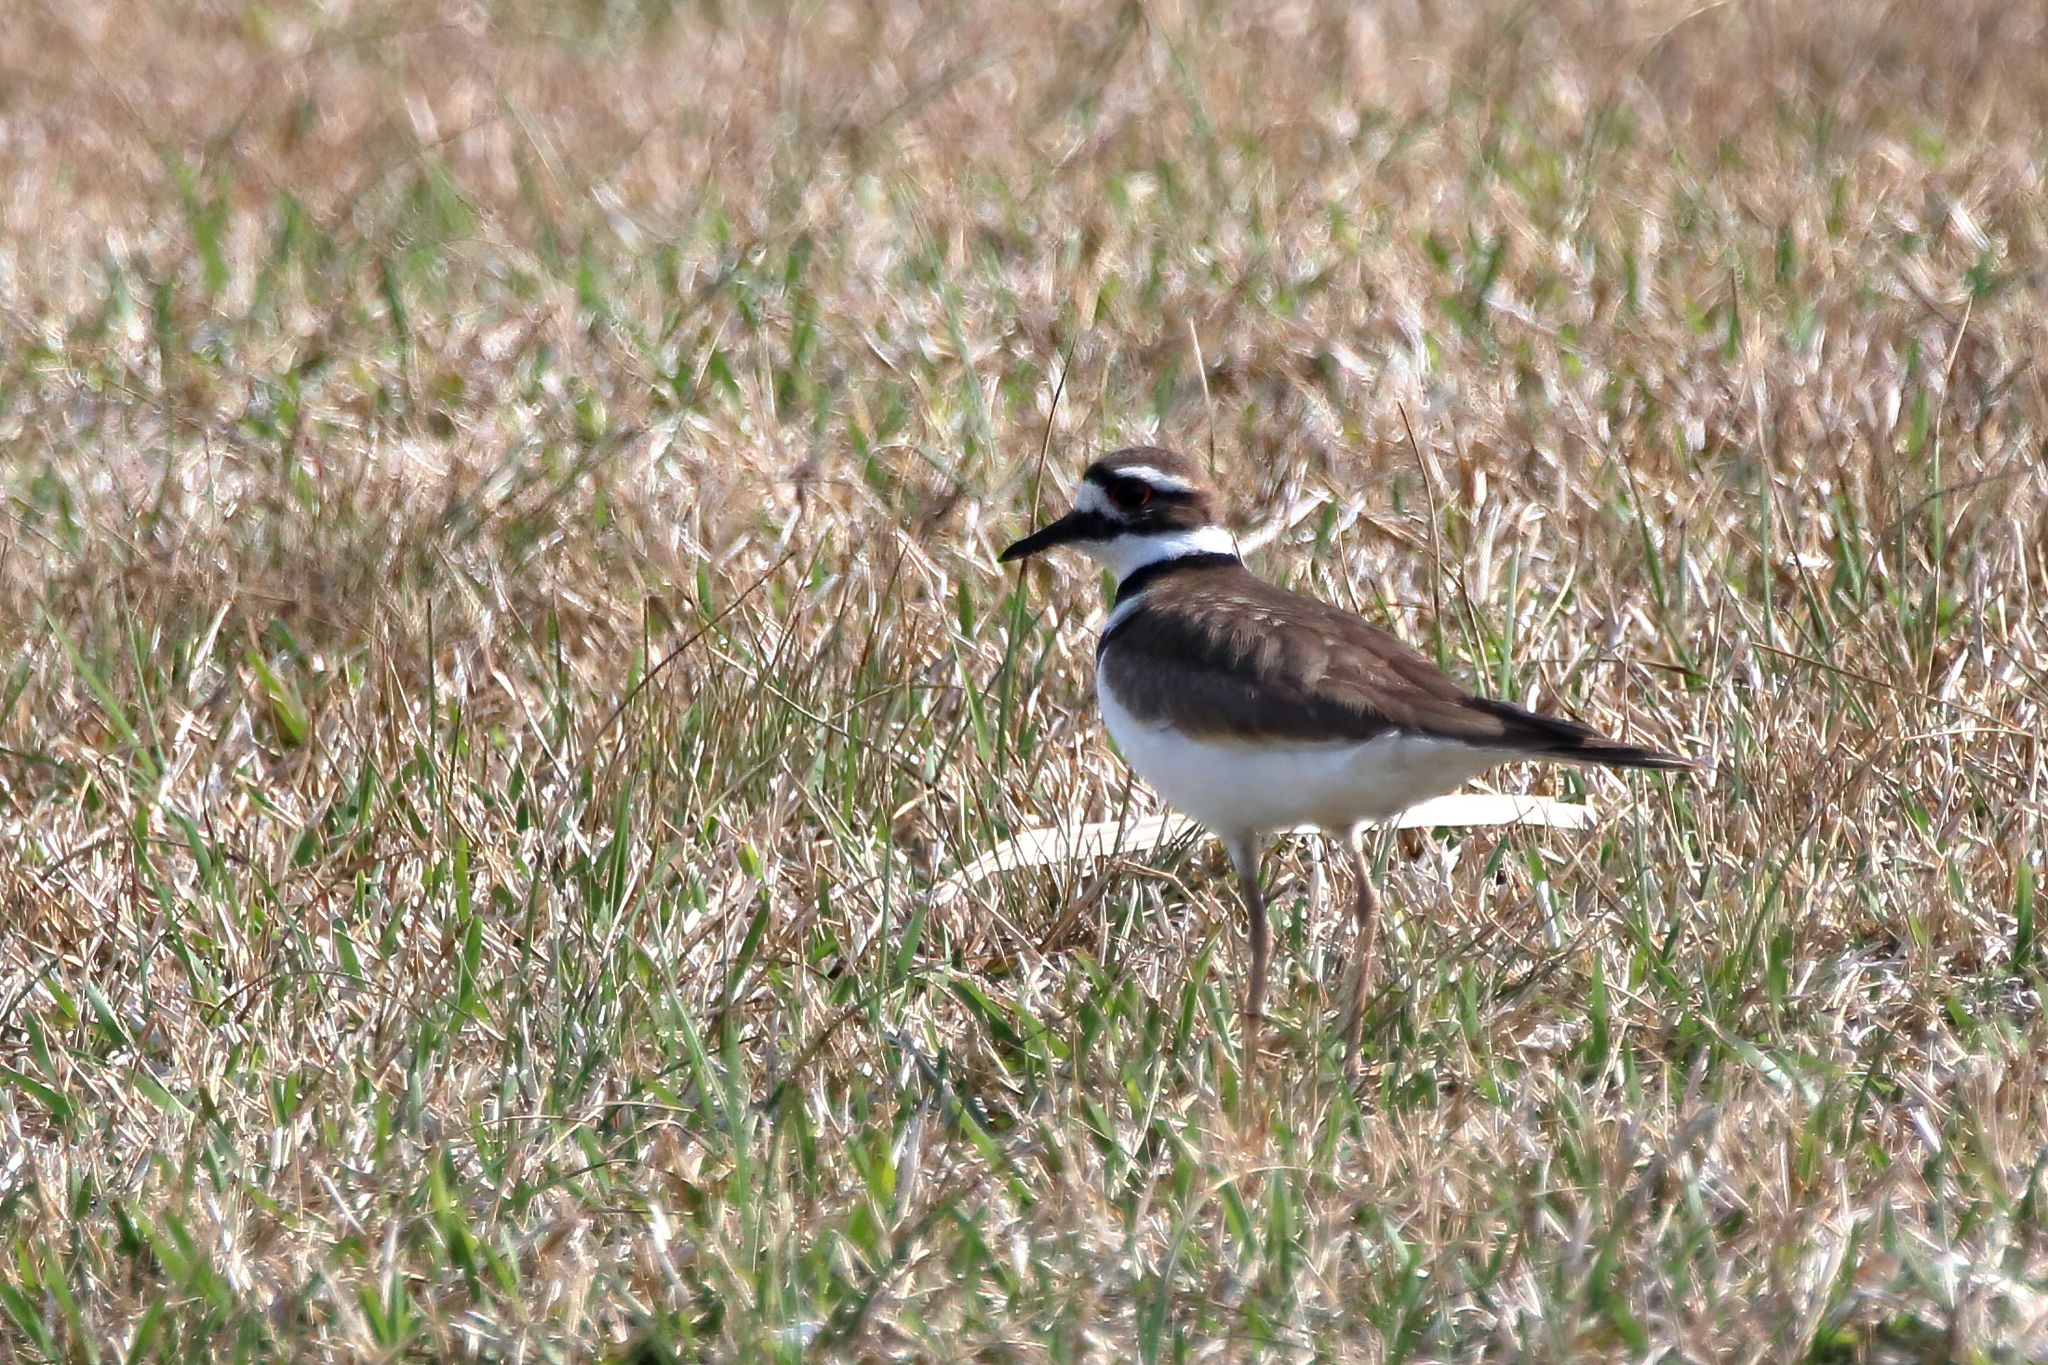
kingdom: Animalia
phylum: Chordata
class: Aves
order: Charadriiformes
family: Charadriidae
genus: Charadrius
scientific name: Charadrius vociferus
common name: Killdeer
